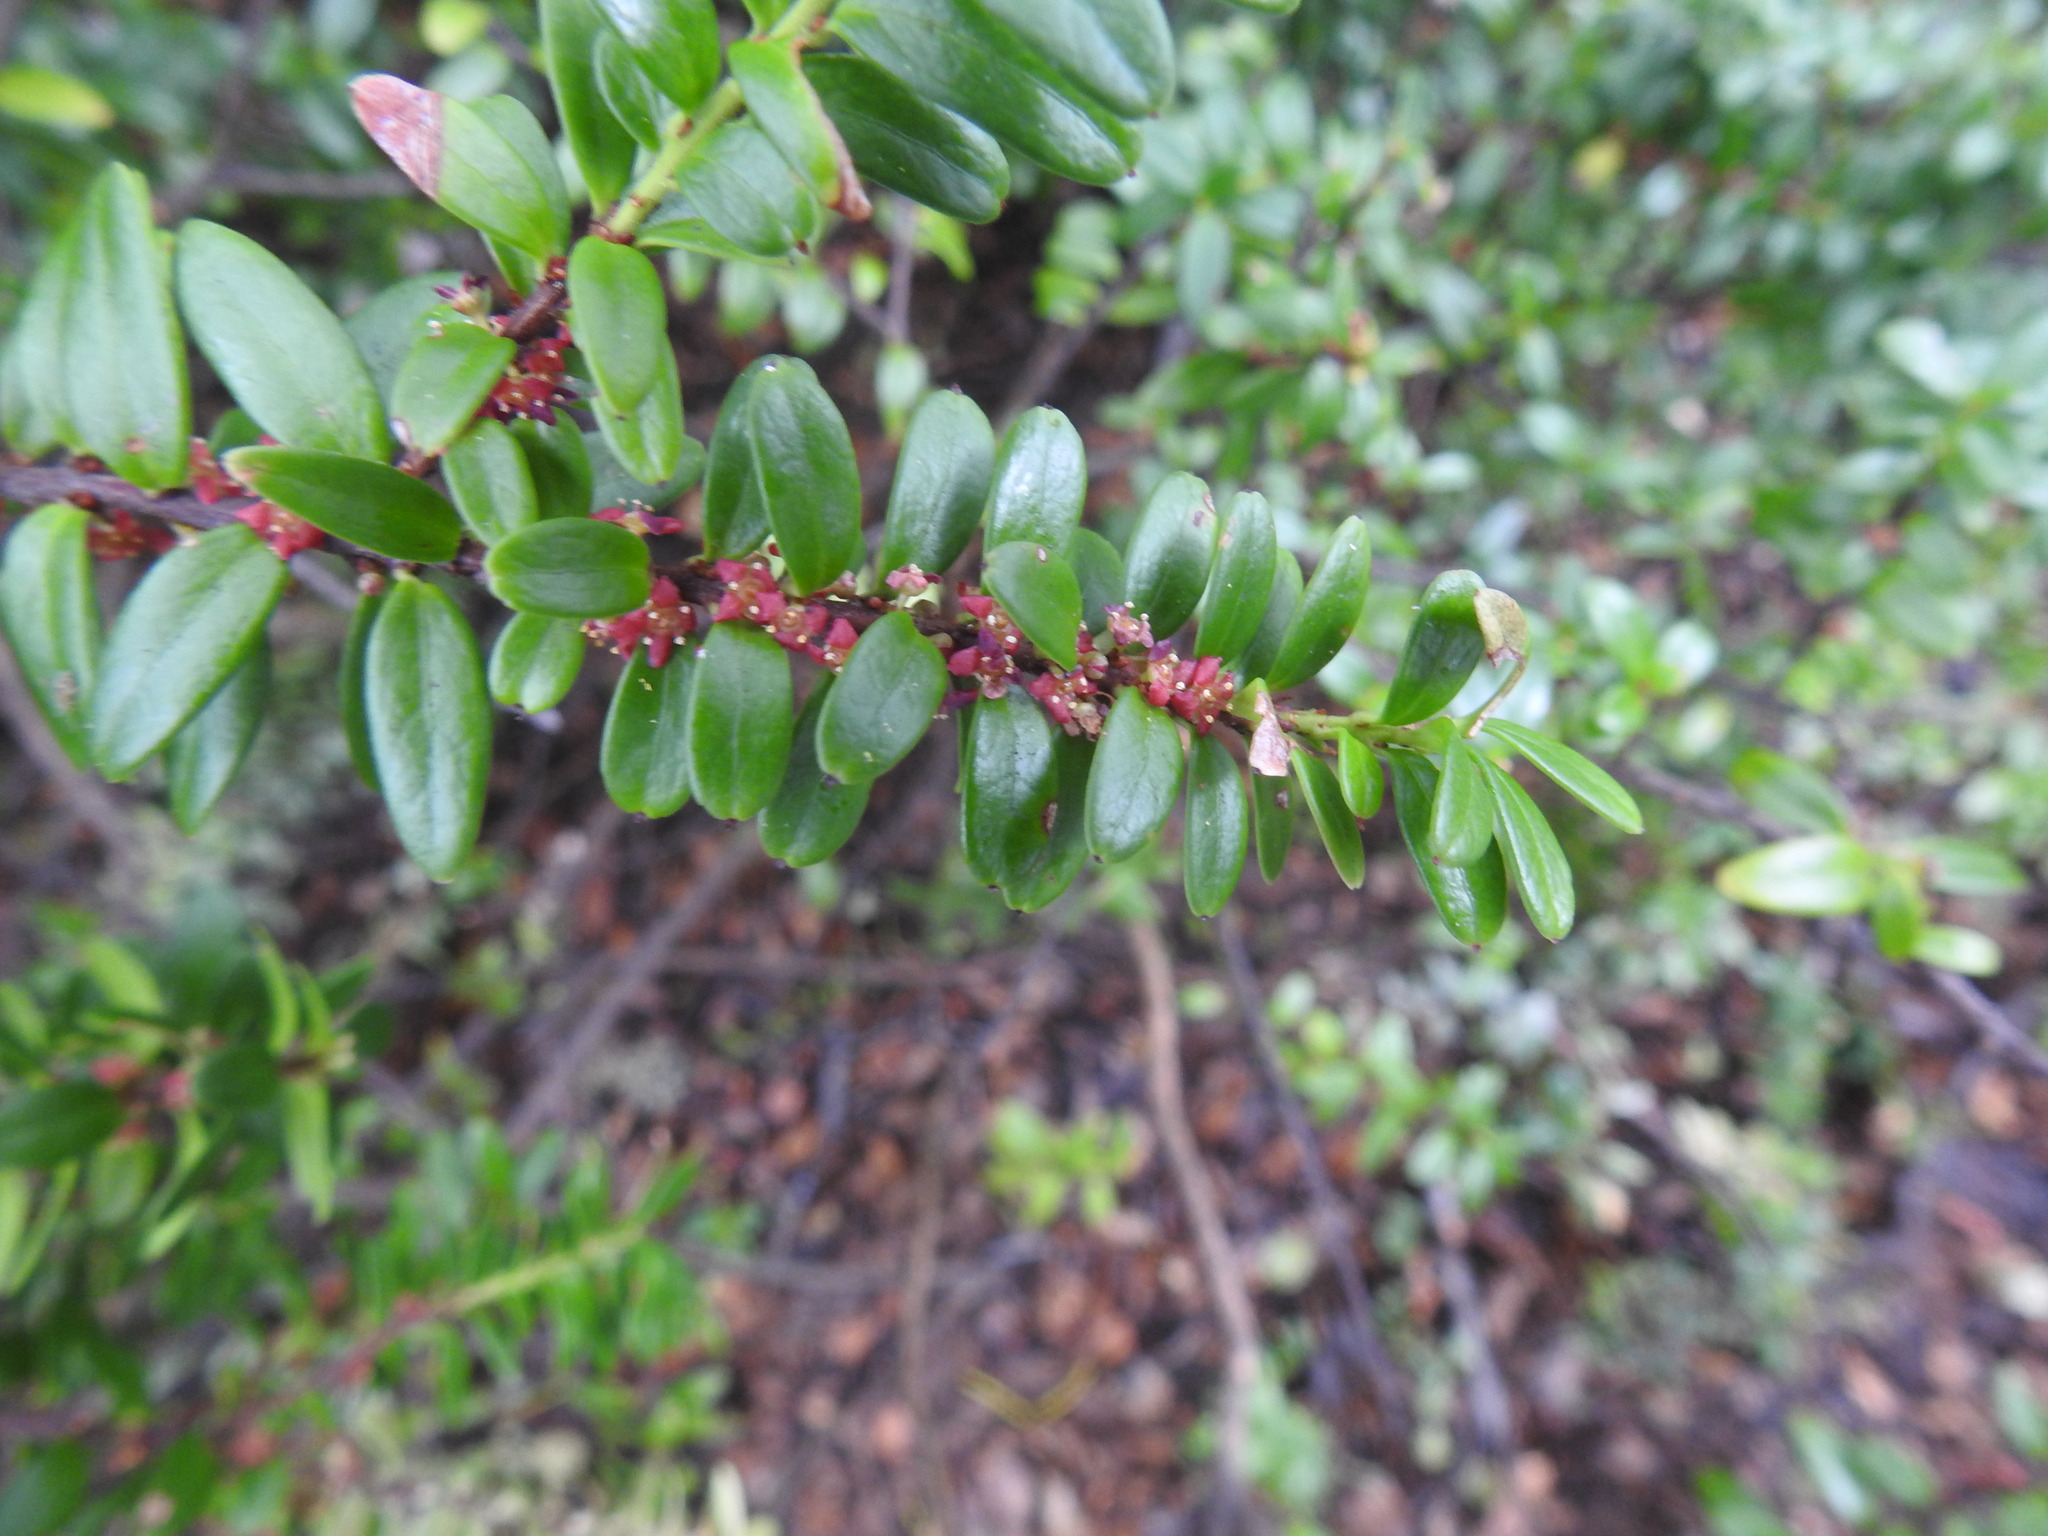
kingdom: Plantae
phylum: Tracheophyta
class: Magnoliopsida
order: Celastrales
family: Celastraceae
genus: Maytenus
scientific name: Maytenus disticha
